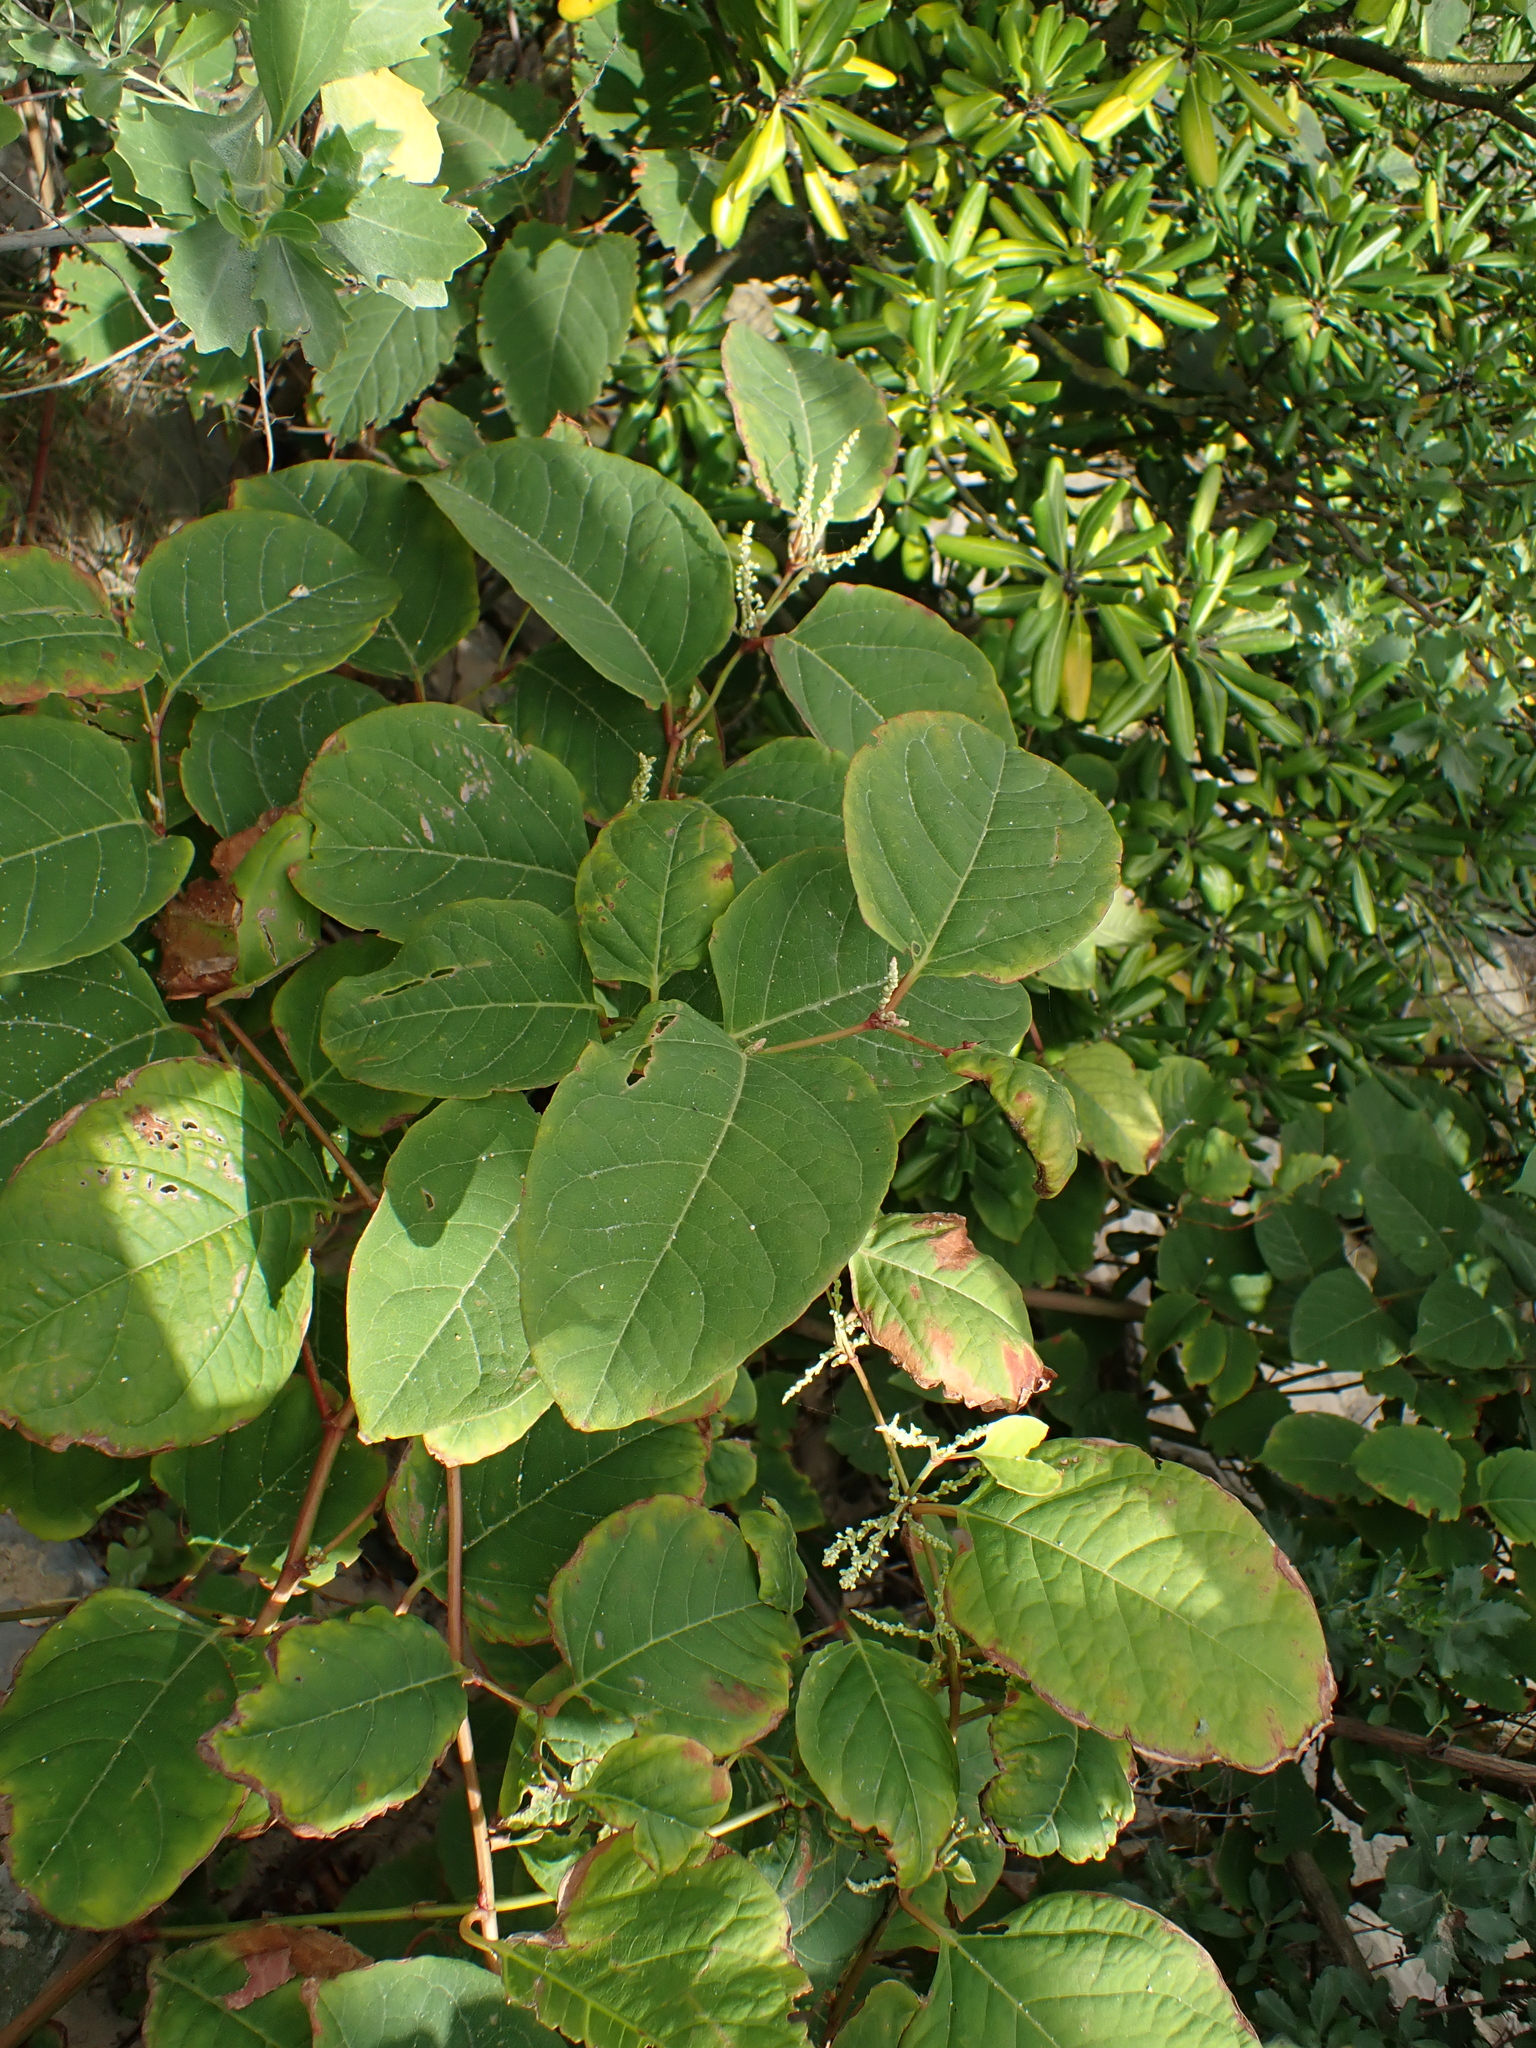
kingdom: Plantae
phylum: Tracheophyta
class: Magnoliopsida
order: Caryophyllales
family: Polygonaceae
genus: Reynoutria
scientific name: Reynoutria japonica
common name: Japanese knotweed
